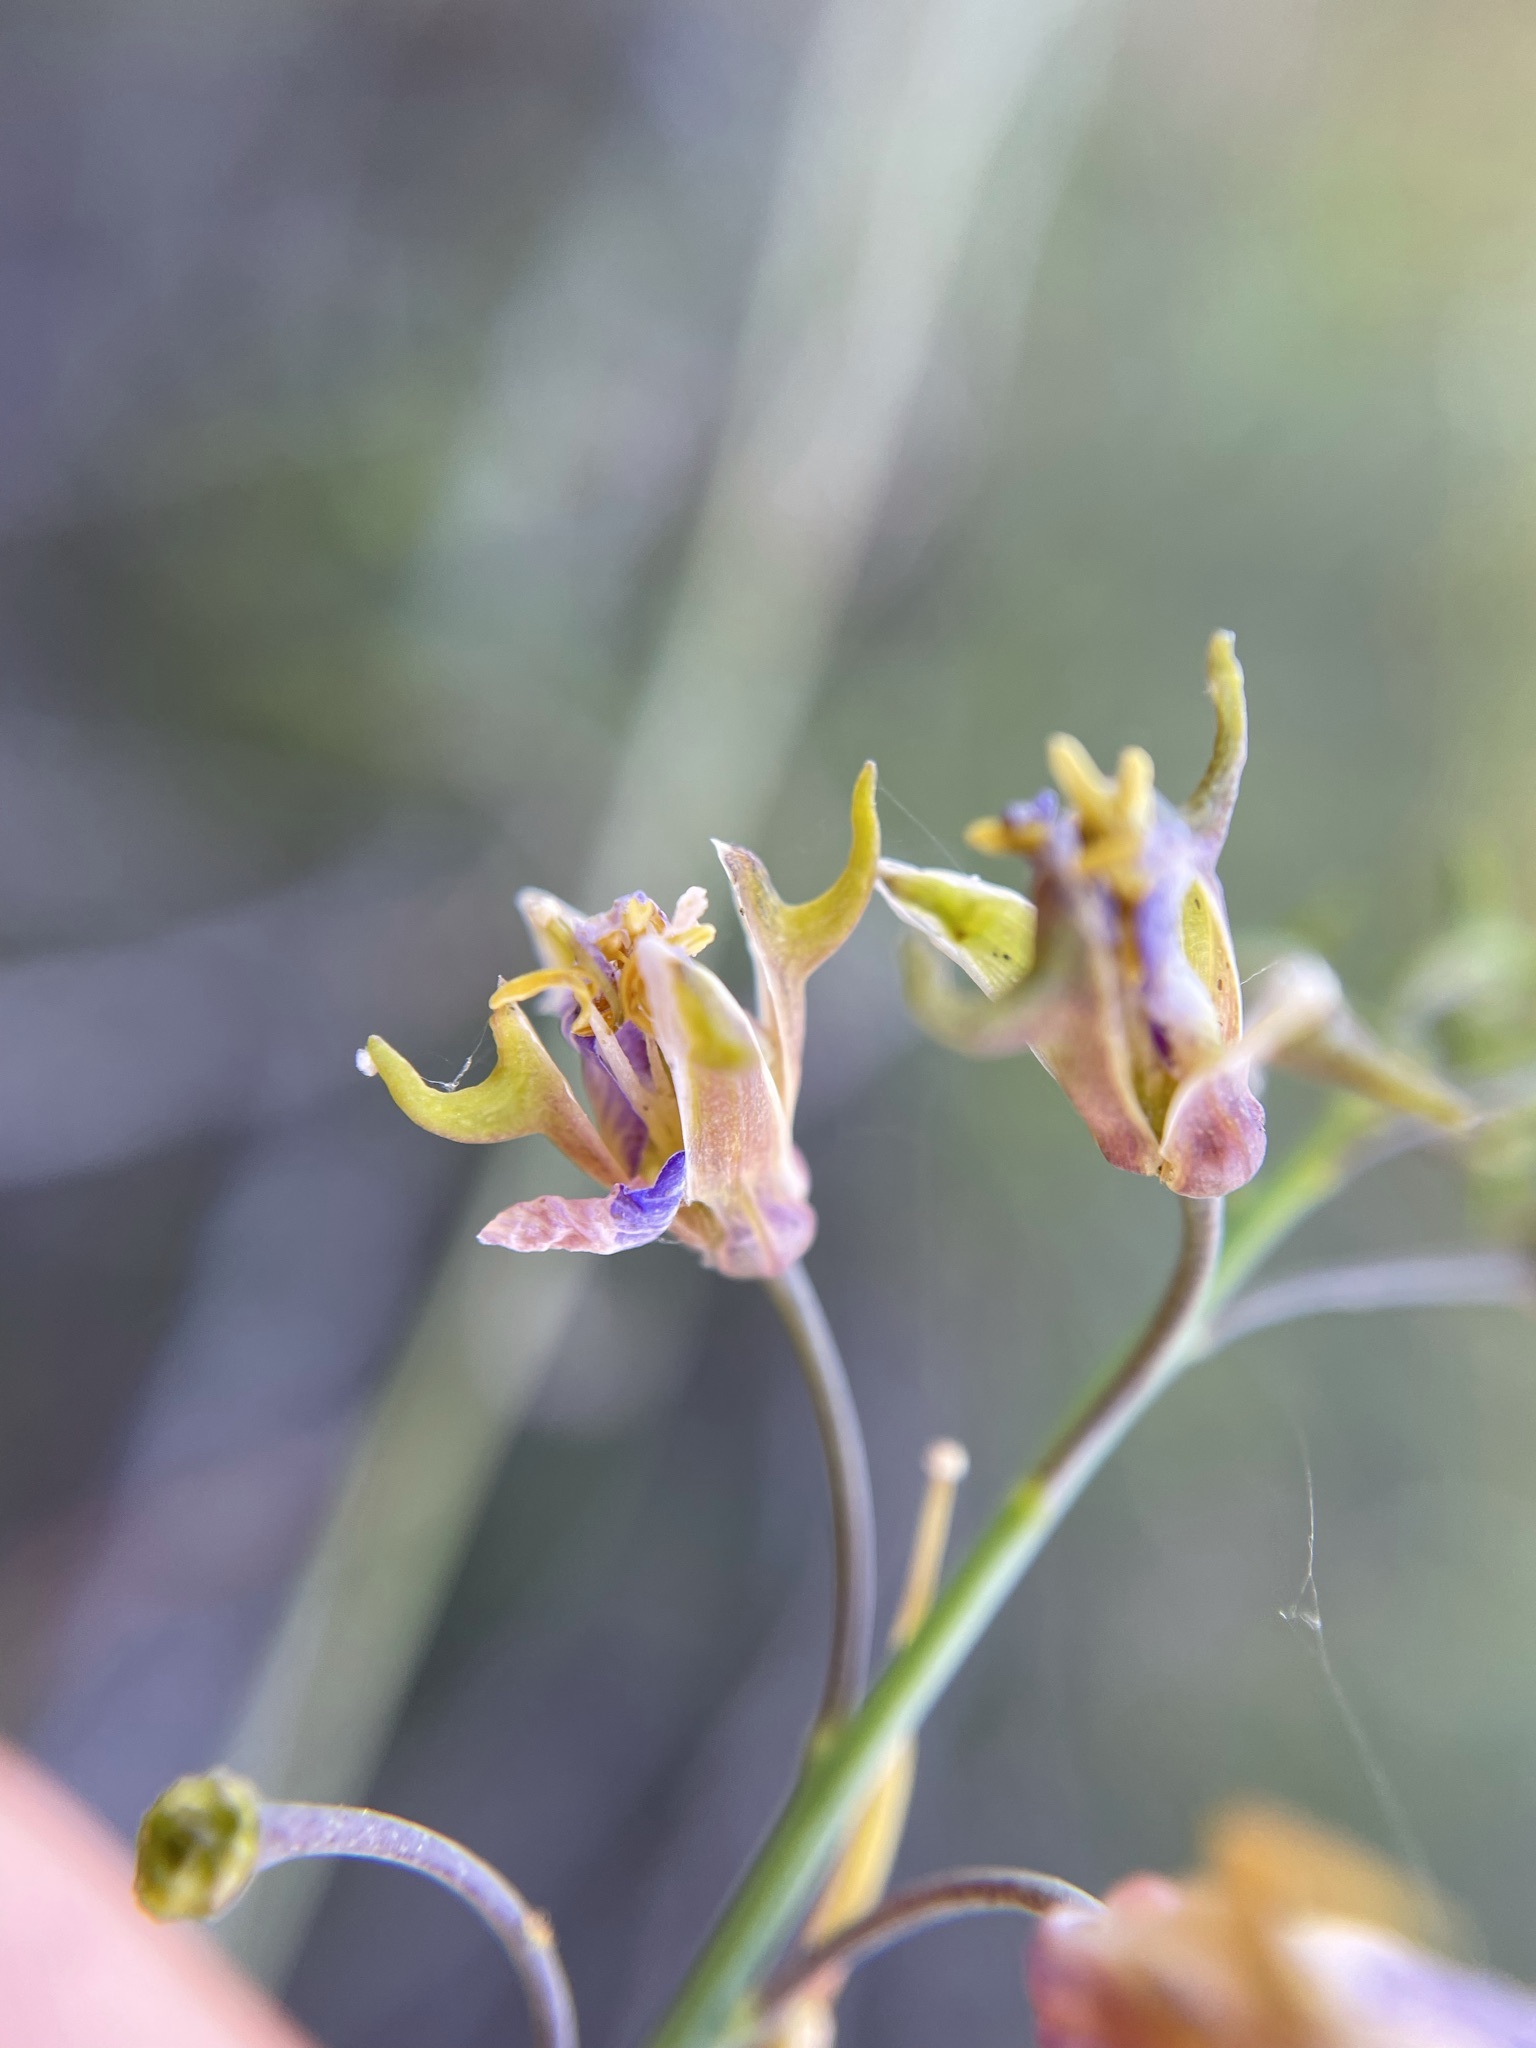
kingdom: Plantae
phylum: Tracheophyta
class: Magnoliopsida
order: Brassicales
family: Brassicaceae
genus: Heliophila
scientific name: Heliophila cornuta
